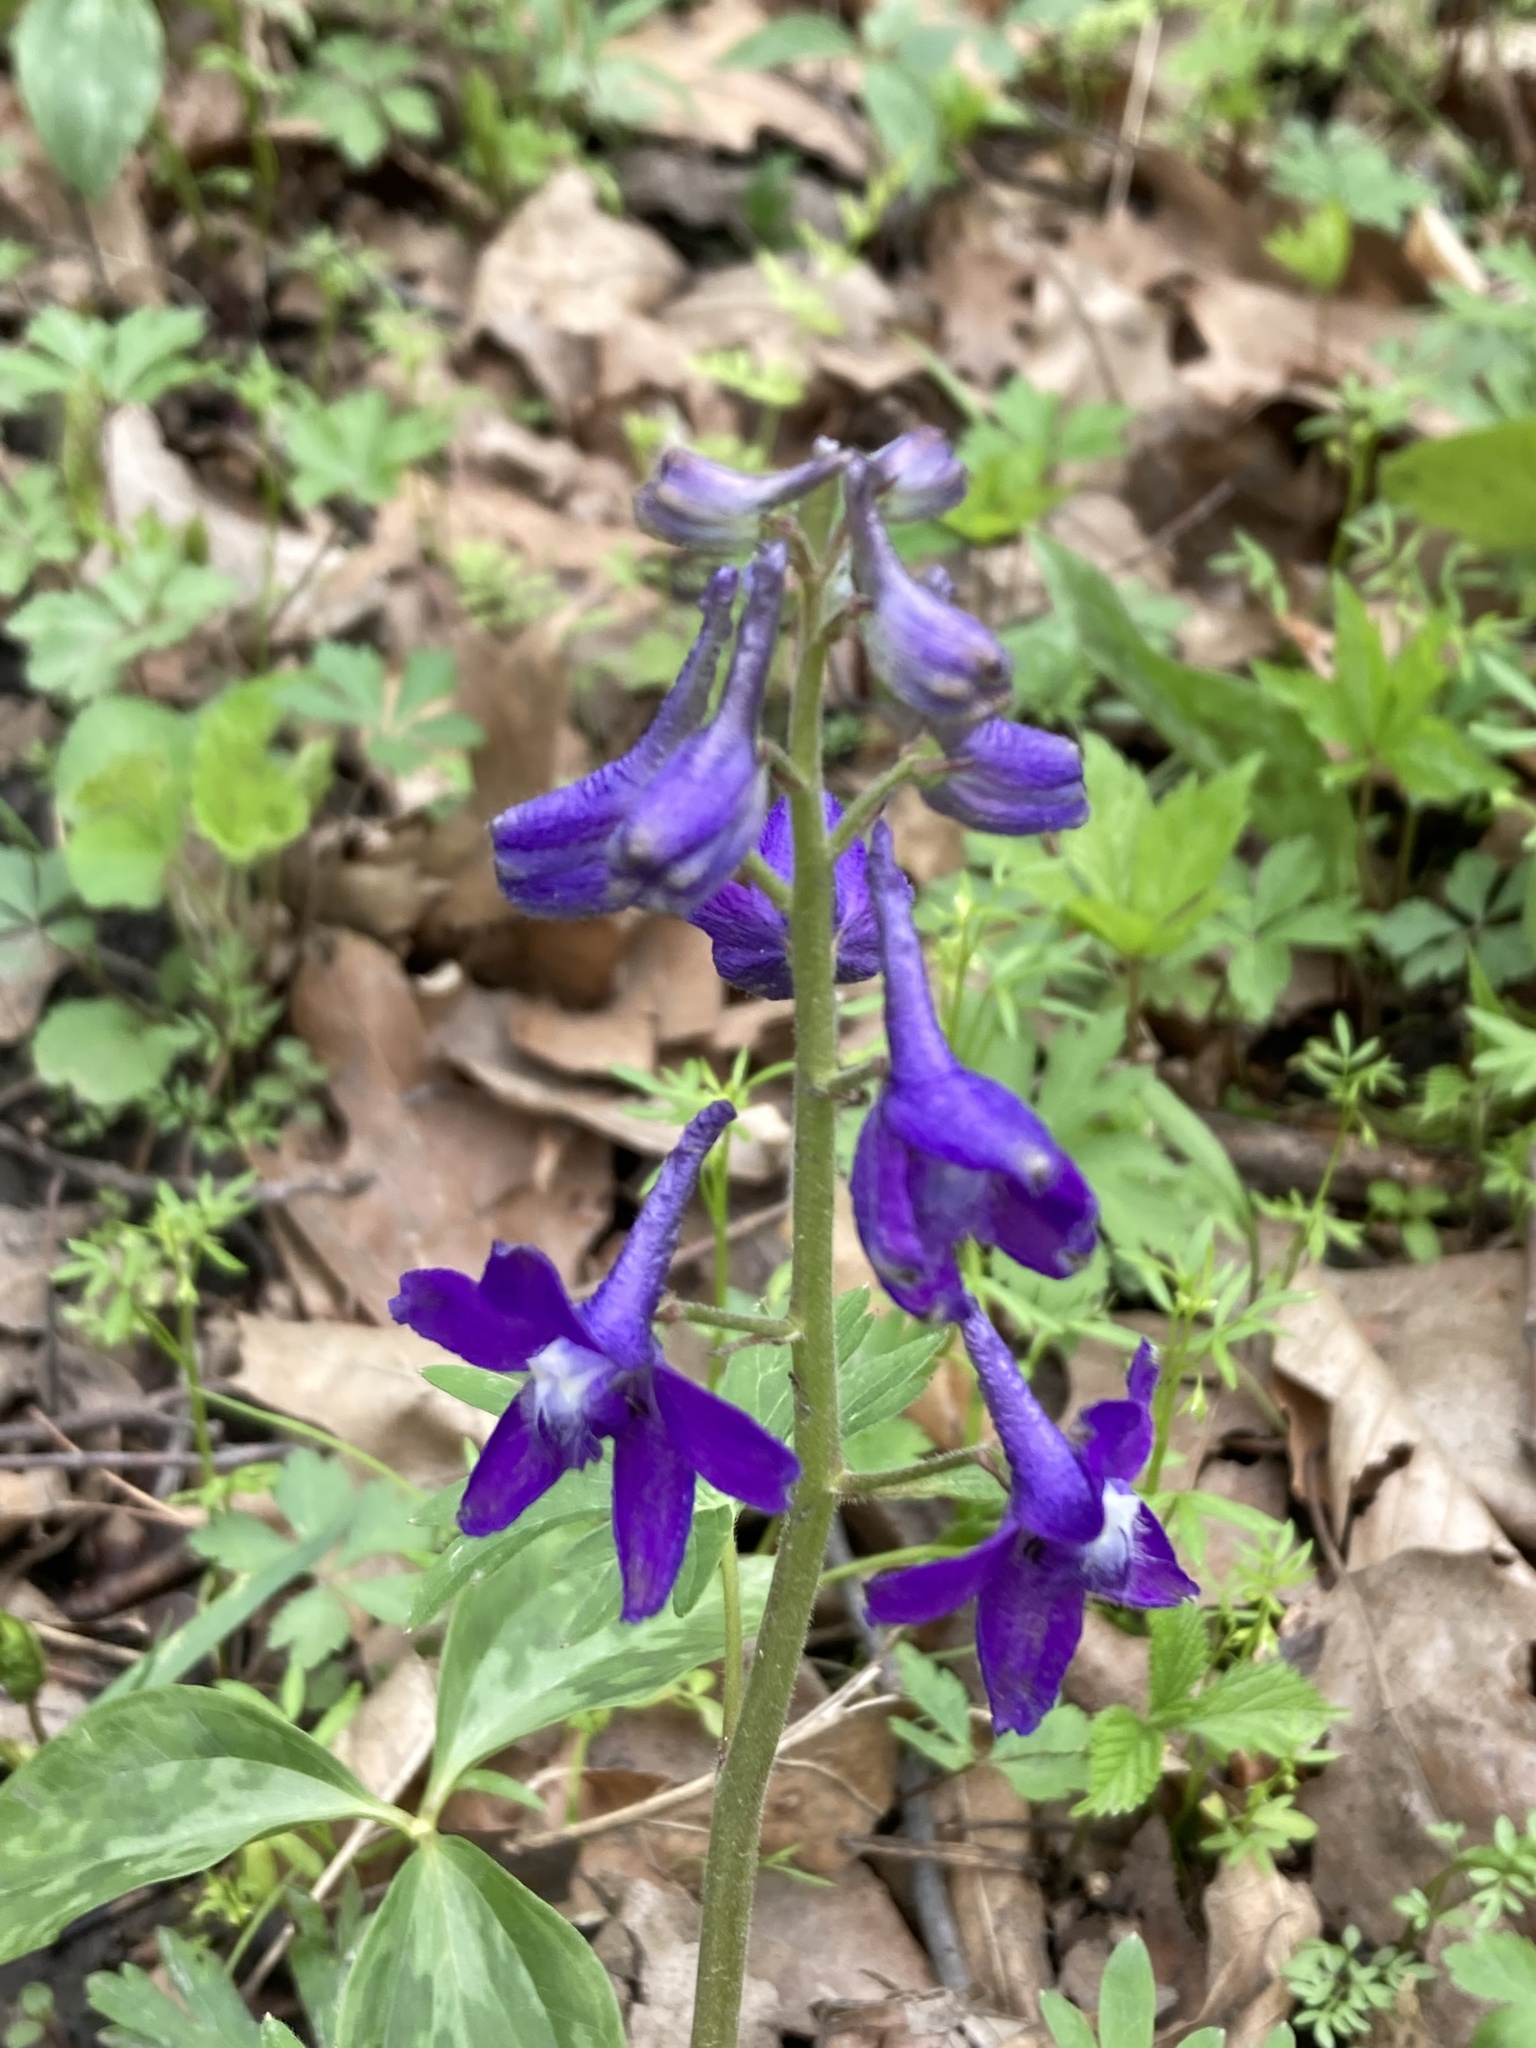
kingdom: Plantae
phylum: Tracheophyta
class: Magnoliopsida
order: Ranunculales
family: Ranunculaceae
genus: Delphinium
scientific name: Delphinium tricorne
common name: Dwarf larkspur
